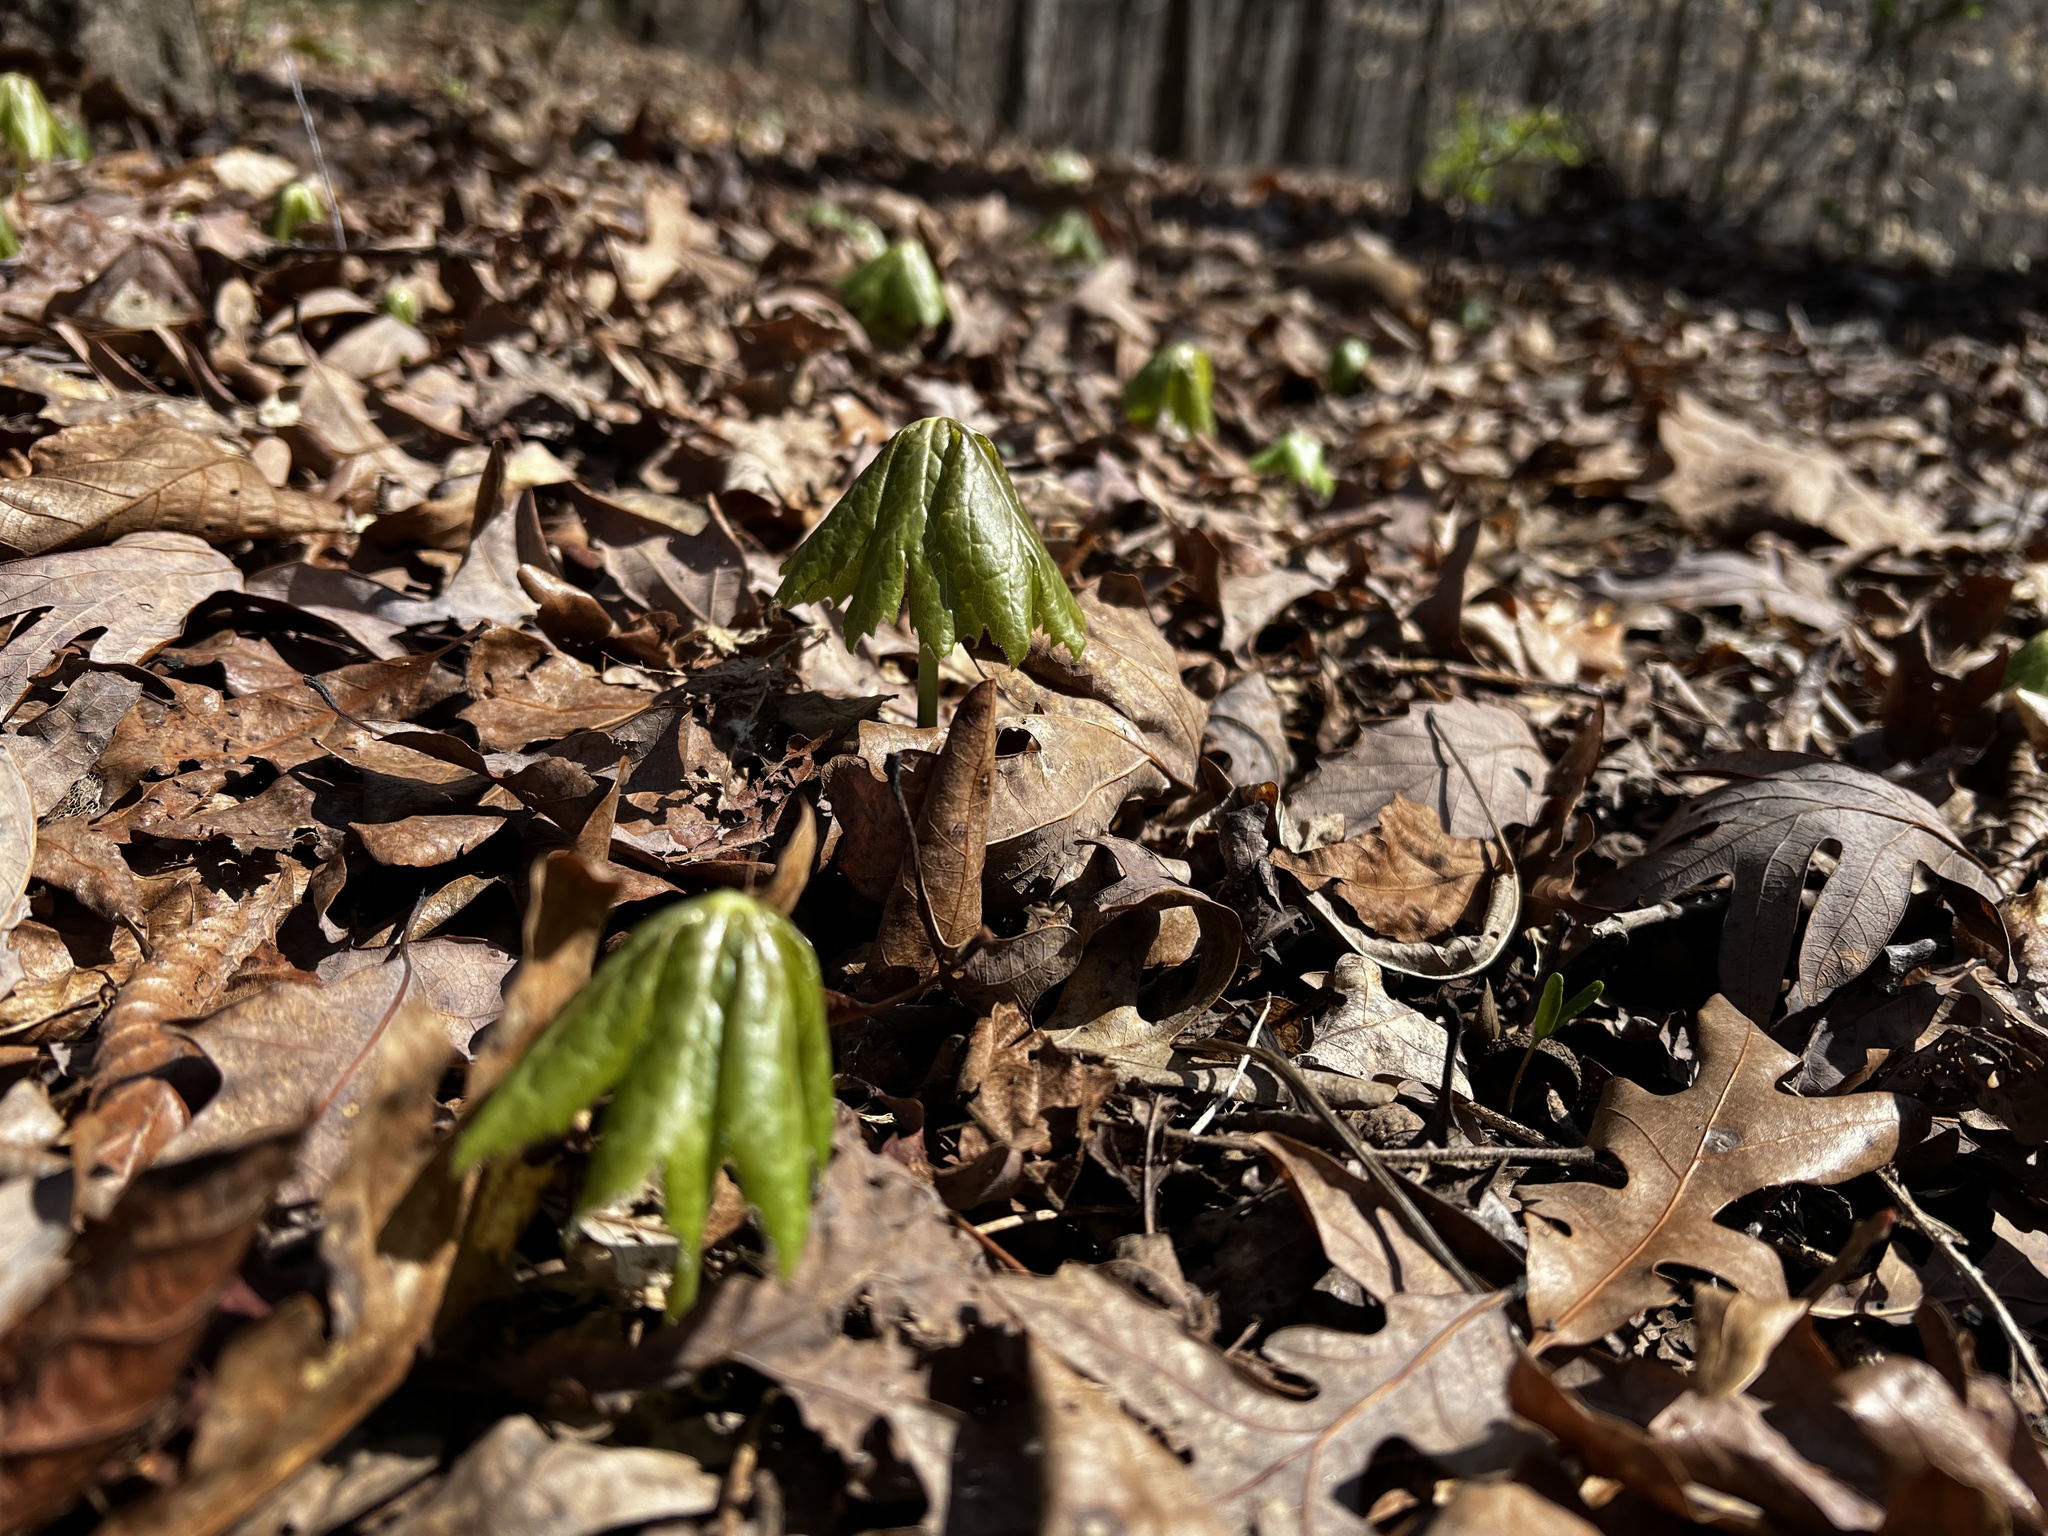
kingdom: Plantae
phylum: Tracheophyta
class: Magnoliopsida
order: Ranunculales
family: Berberidaceae
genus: Podophyllum
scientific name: Podophyllum peltatum
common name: Wild mandrake
